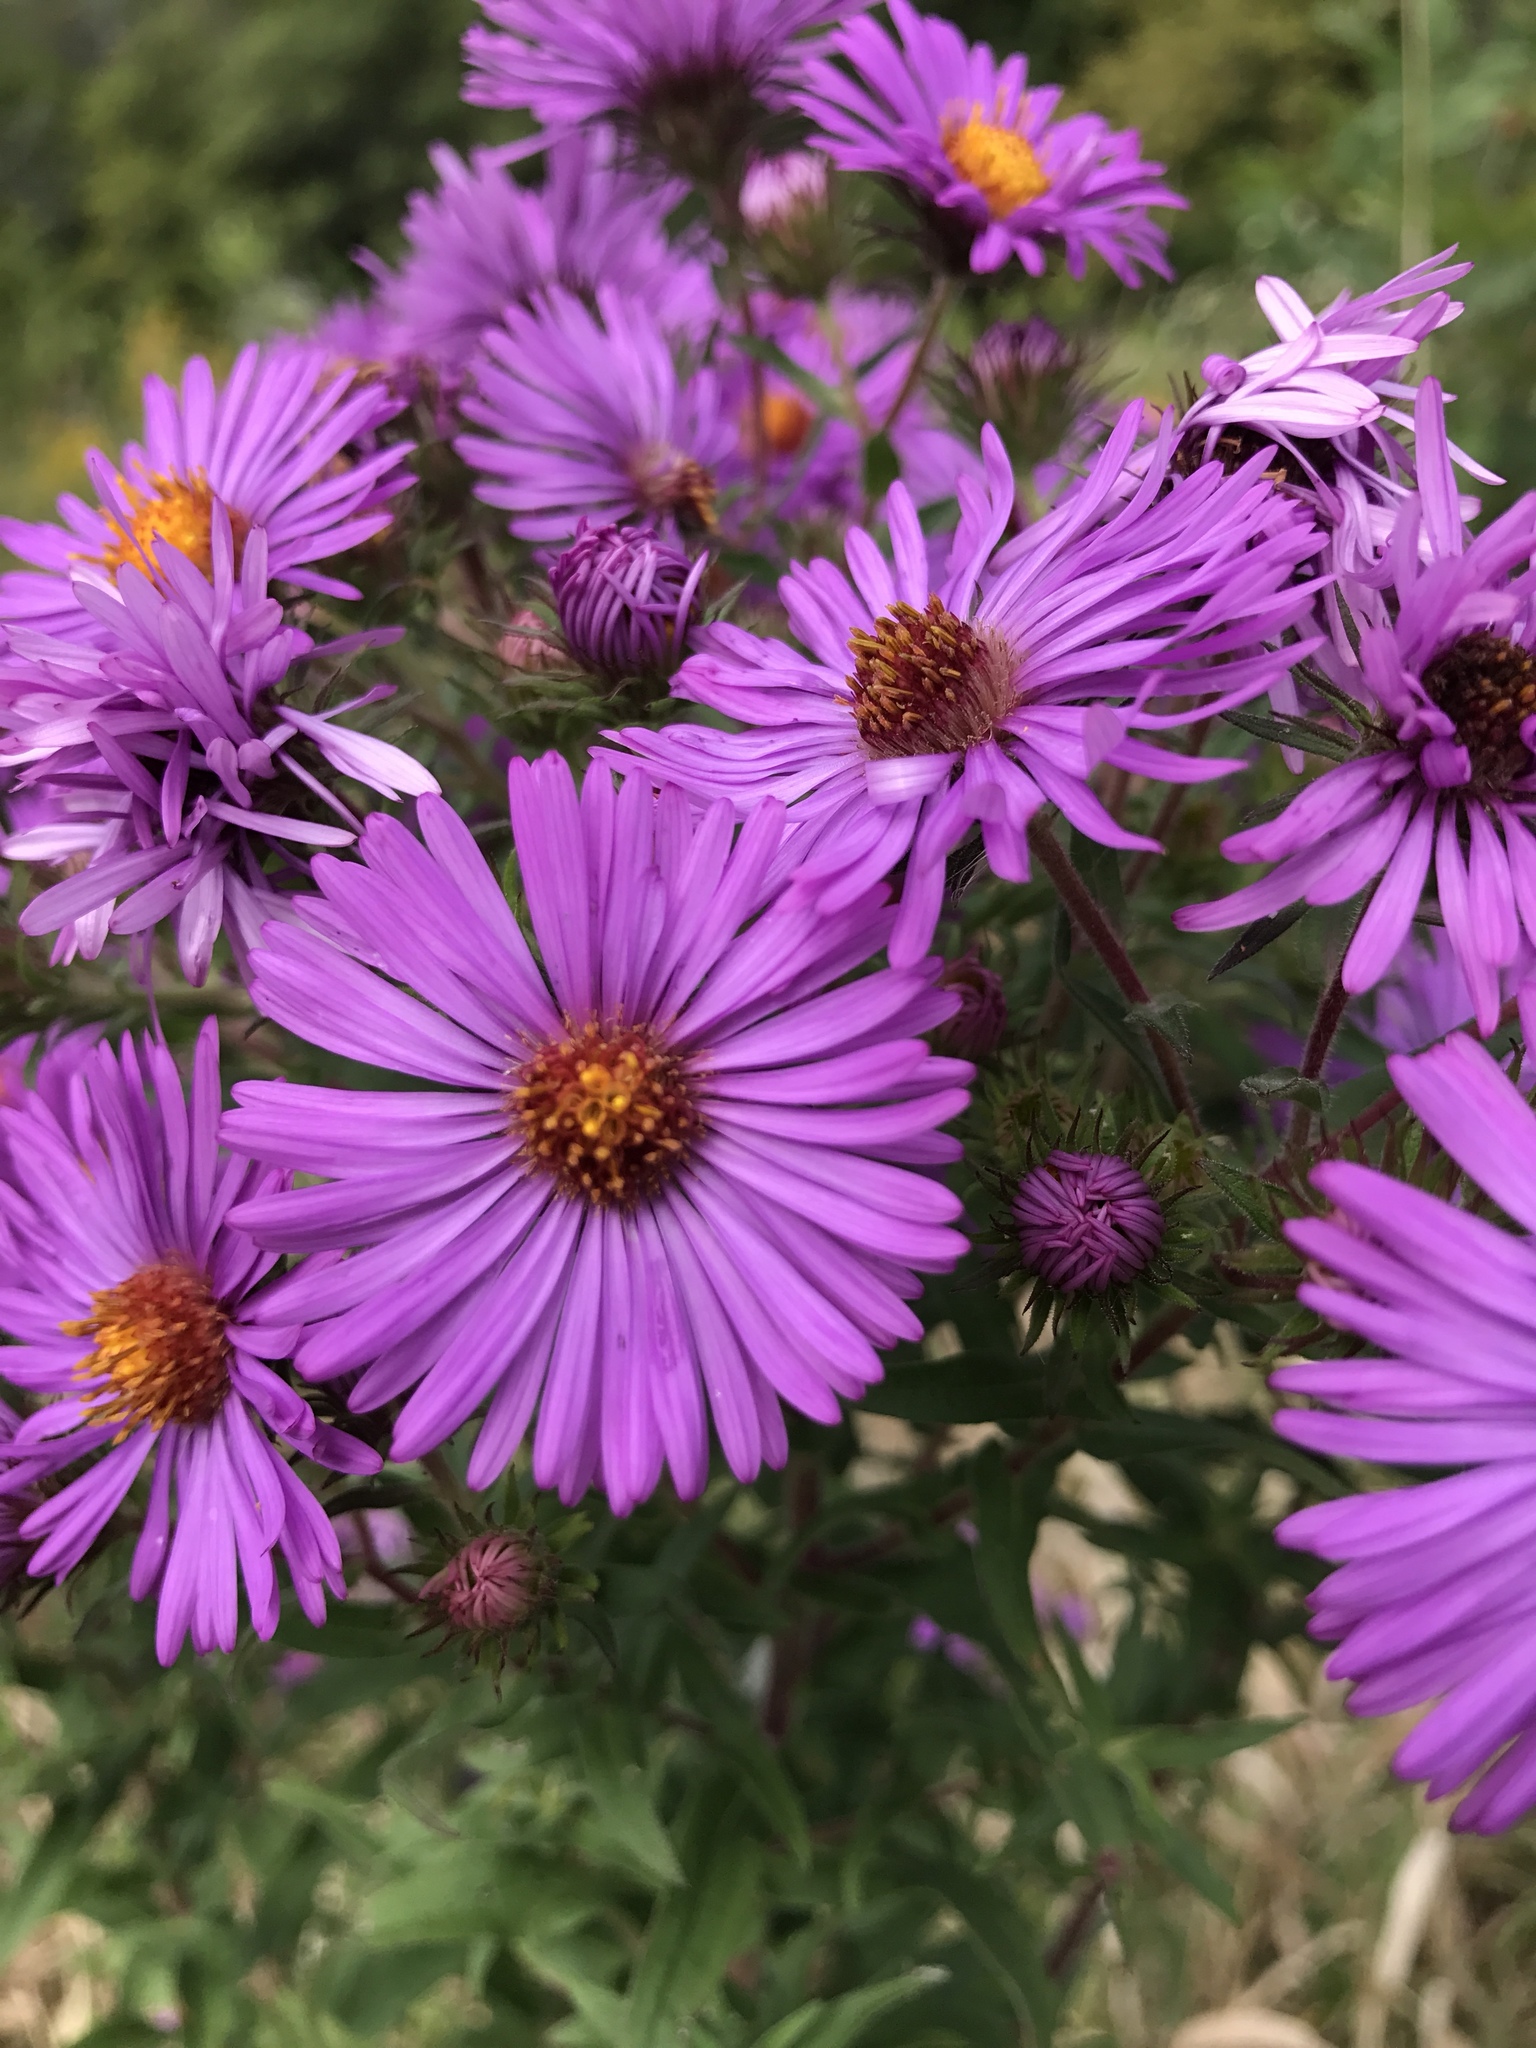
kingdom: Plantae
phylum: Tracheophyta
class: Magnoliopsida
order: Asterales
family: Asteraceae
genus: Symphyotrichum
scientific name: Symphyotrichum novae-angliae
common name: Michaelmas daisy
